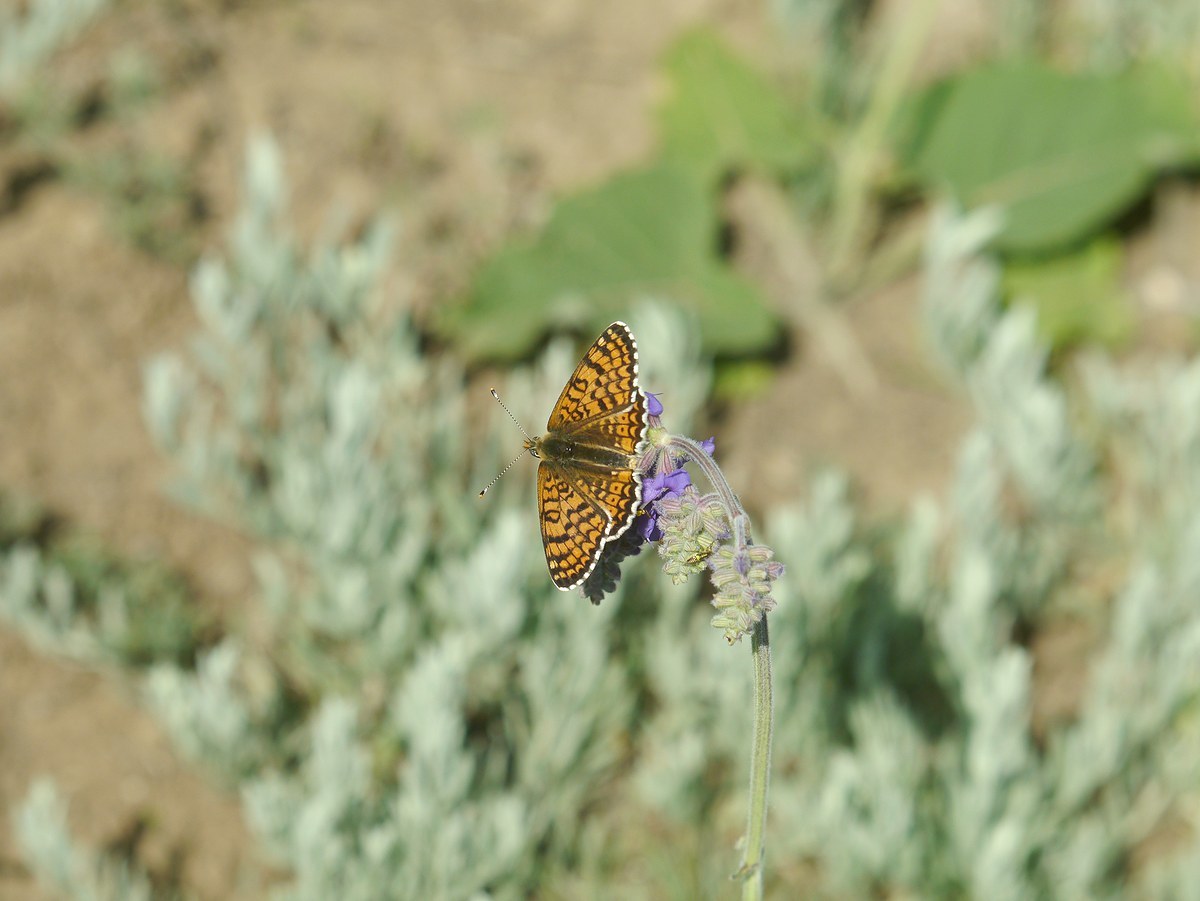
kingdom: Animalia
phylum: Arthropoda
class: Insecta
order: Lepidoptera
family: Nymphalidae
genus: Melitaea
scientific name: Melitaea cinxia
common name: Glanville fritillary
